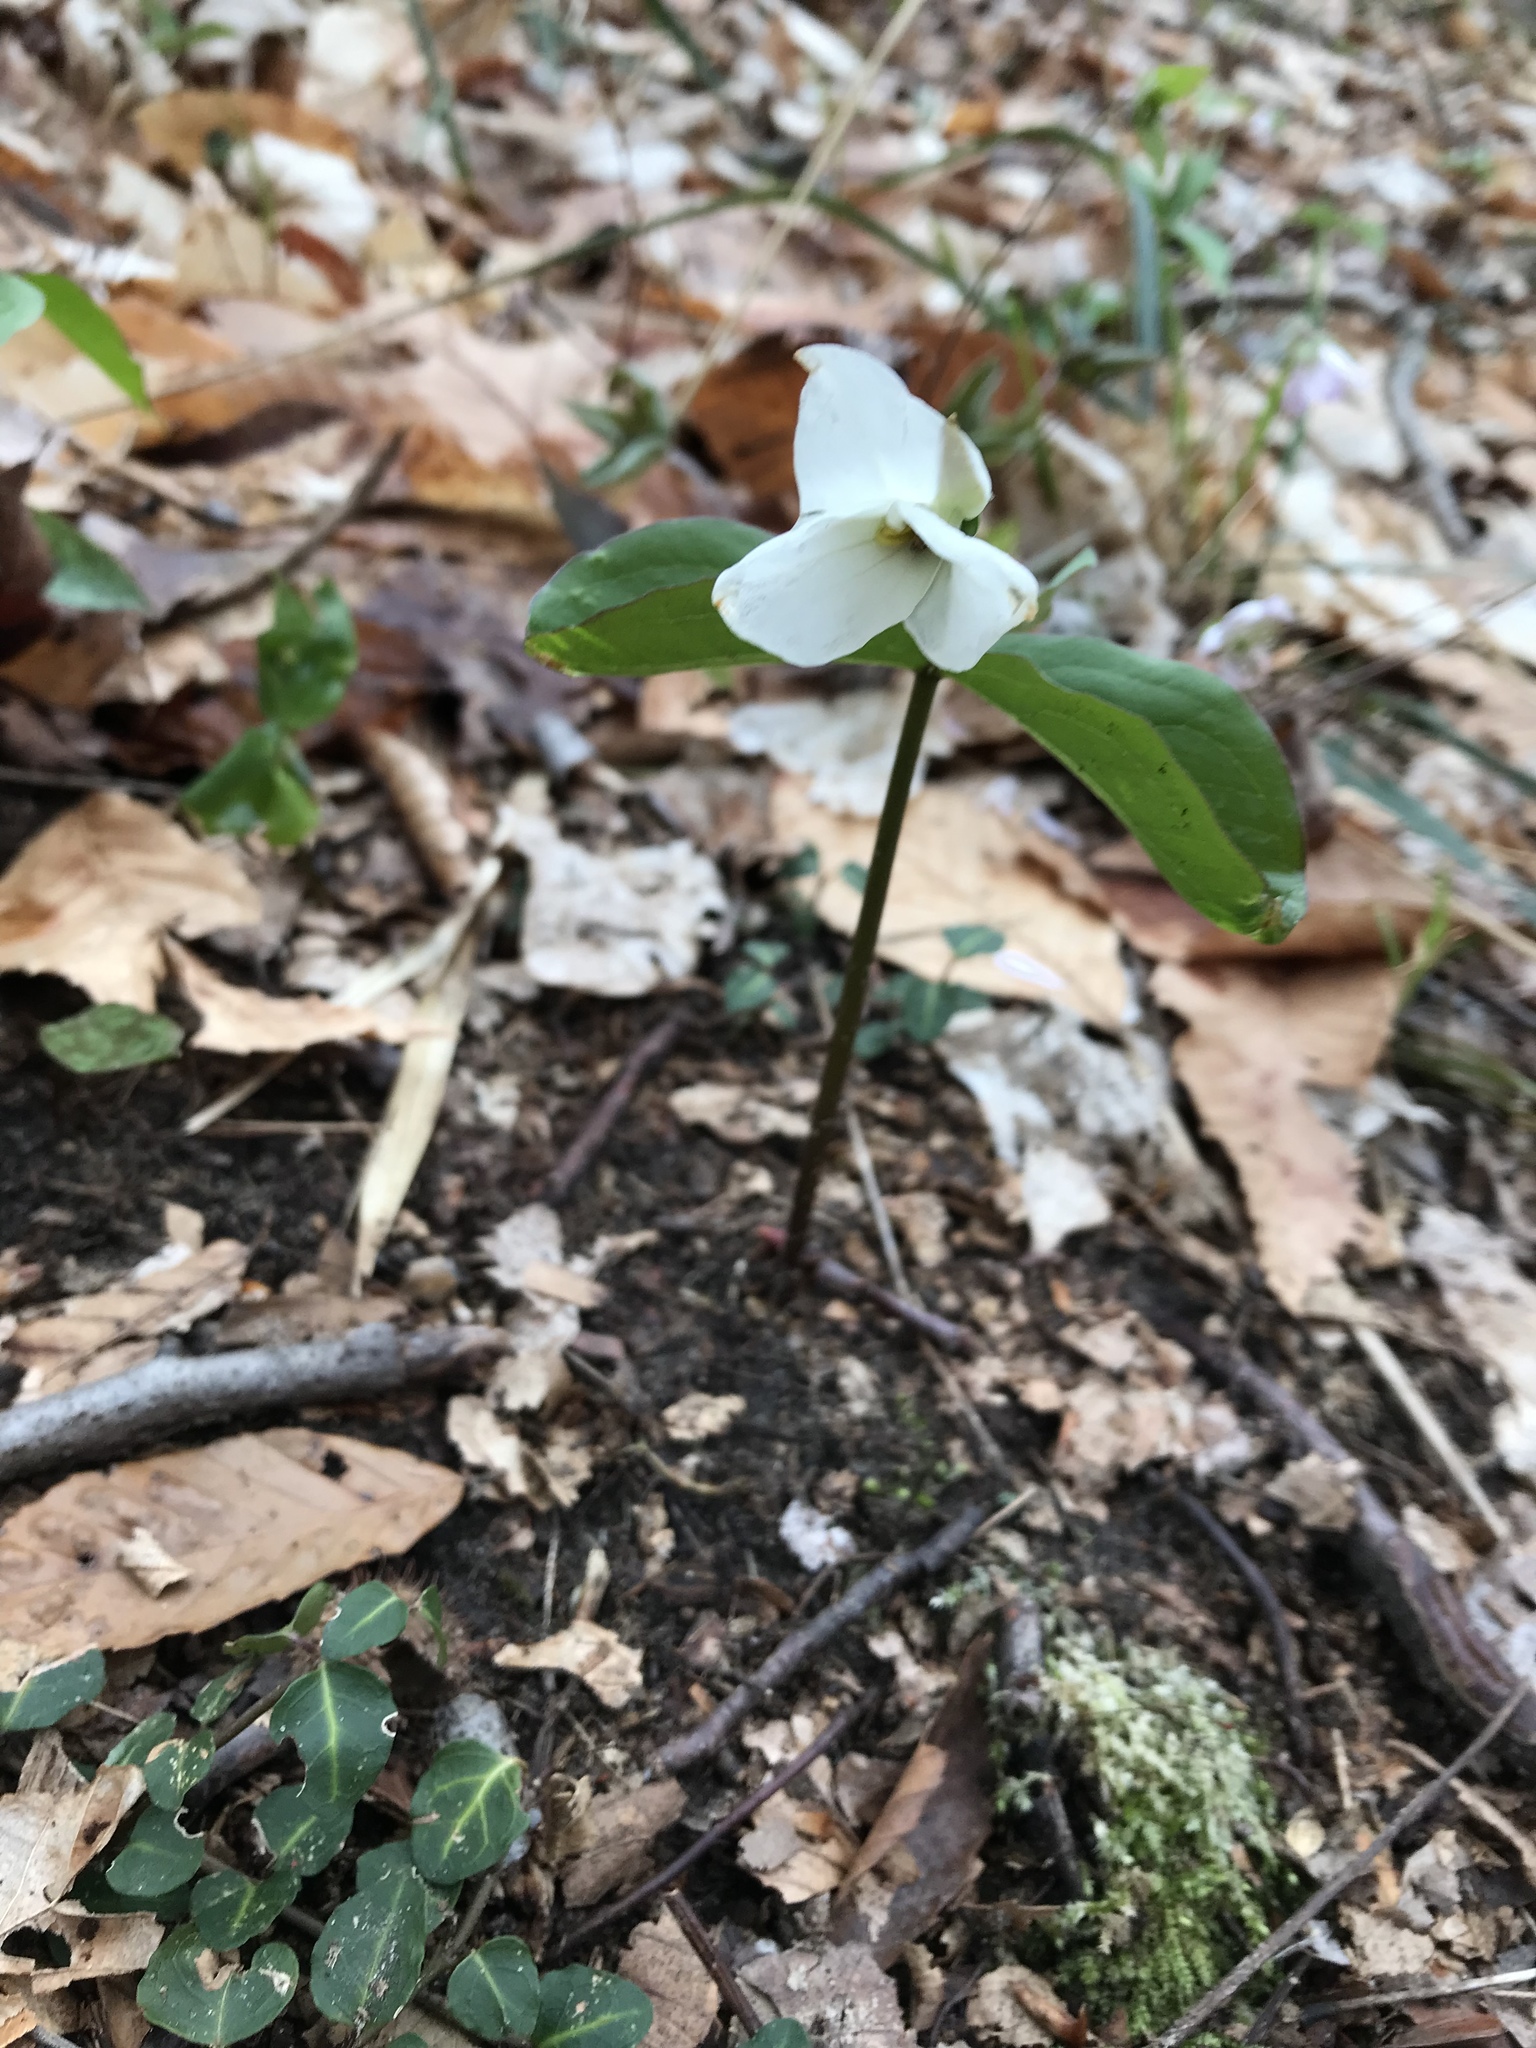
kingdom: Plantae
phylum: Tracheophyta
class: Liliopsida
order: Liliales
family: Melanthiaceae
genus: Trillium
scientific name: Trillium grandiflorum
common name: Great white trillium
